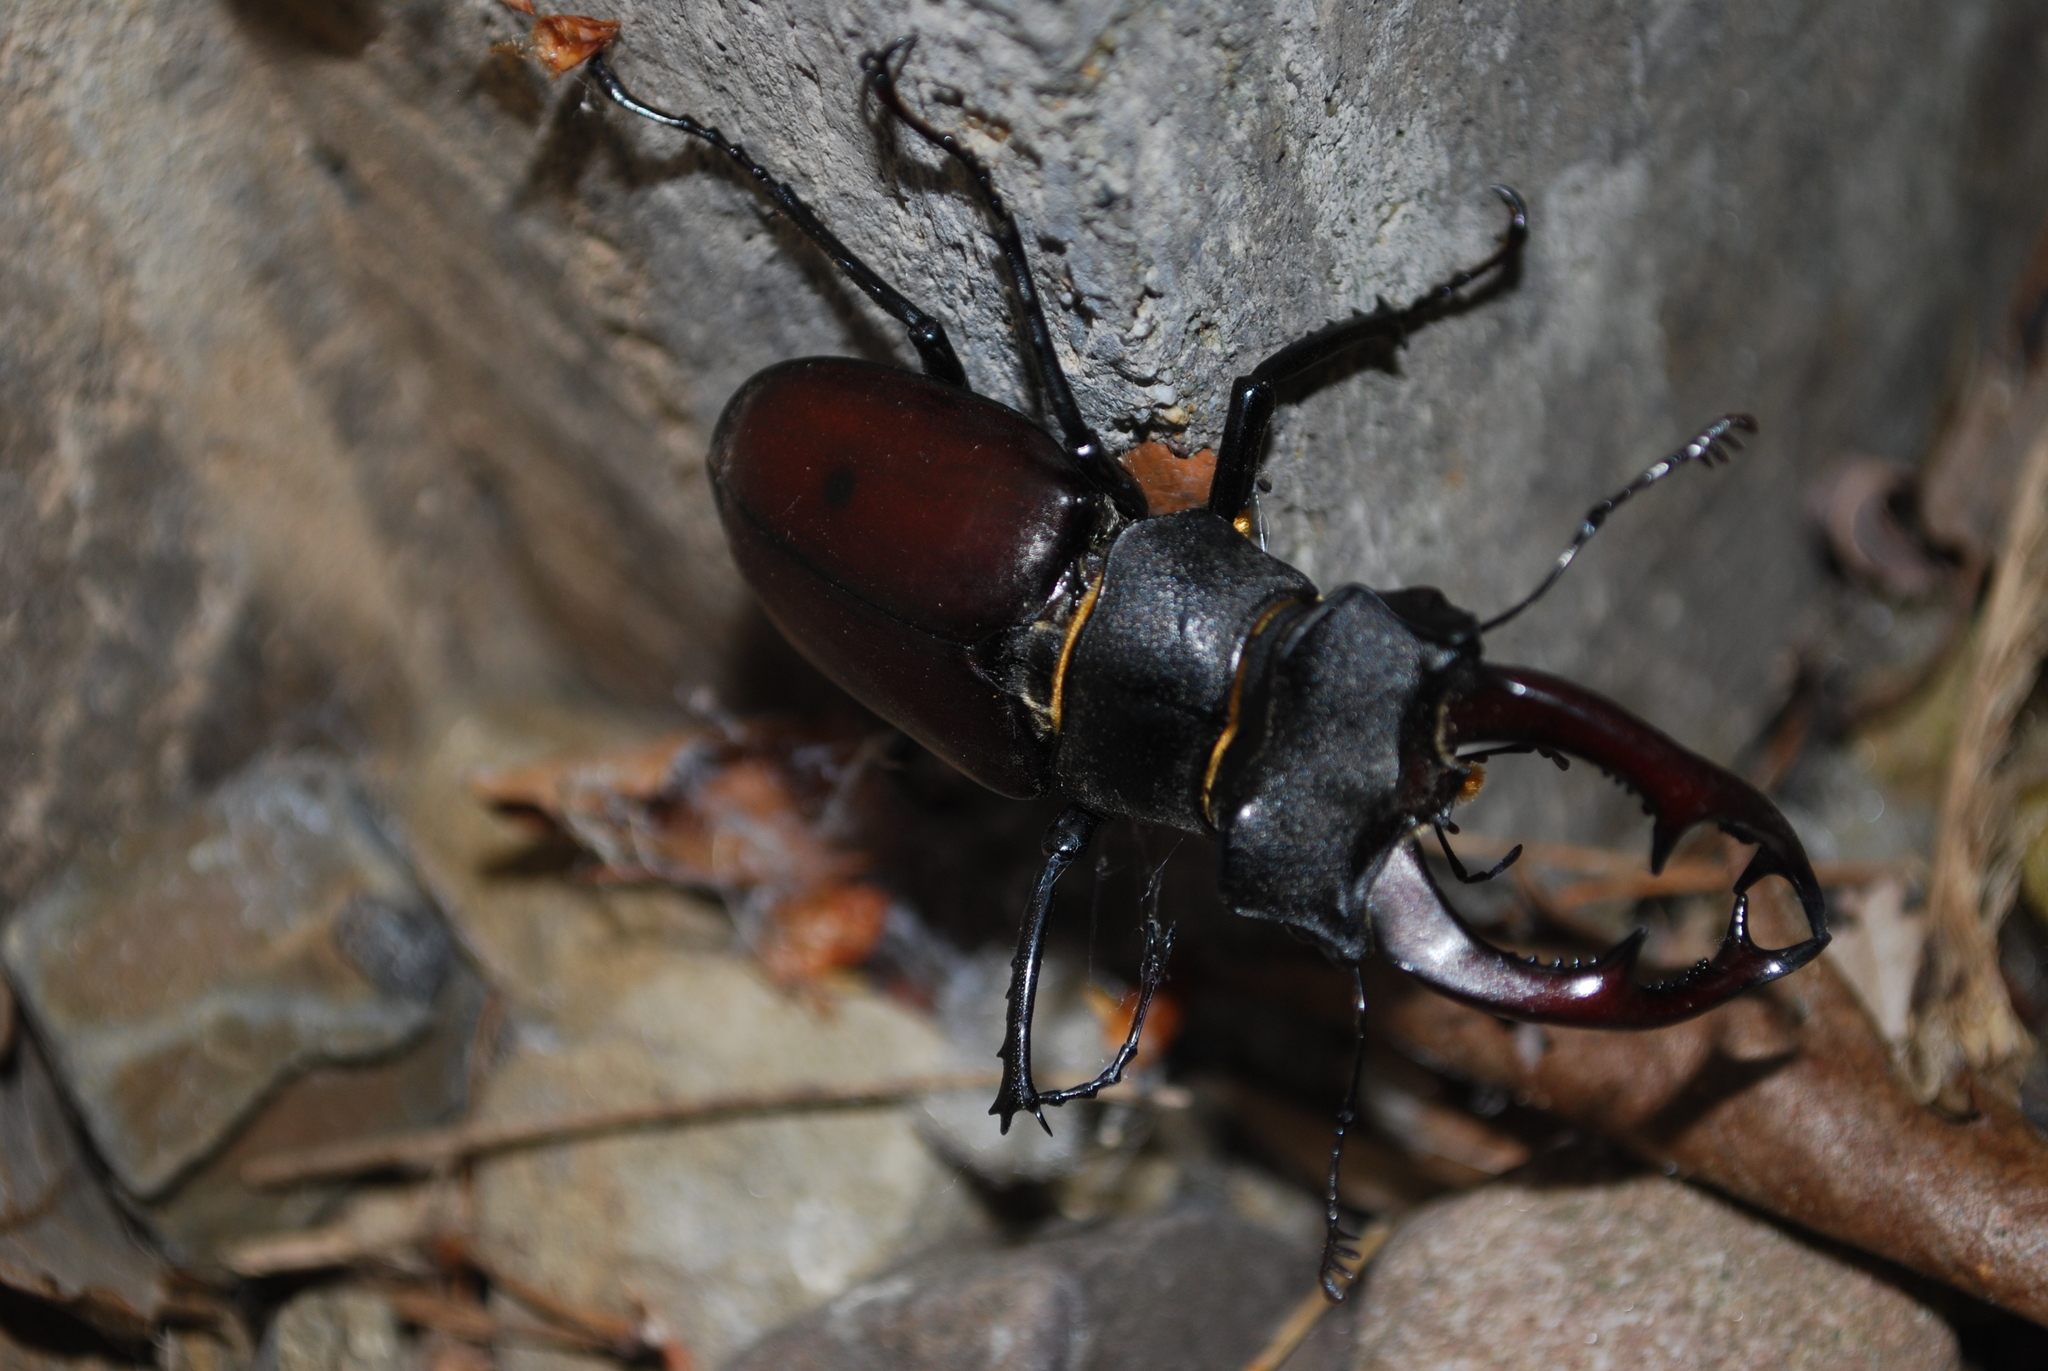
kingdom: Animalia
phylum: Arthropoda
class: Insecta
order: Coleoptera
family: Lucanidae
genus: Lucanus
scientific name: Lucanus cervus
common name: Stag beetle
